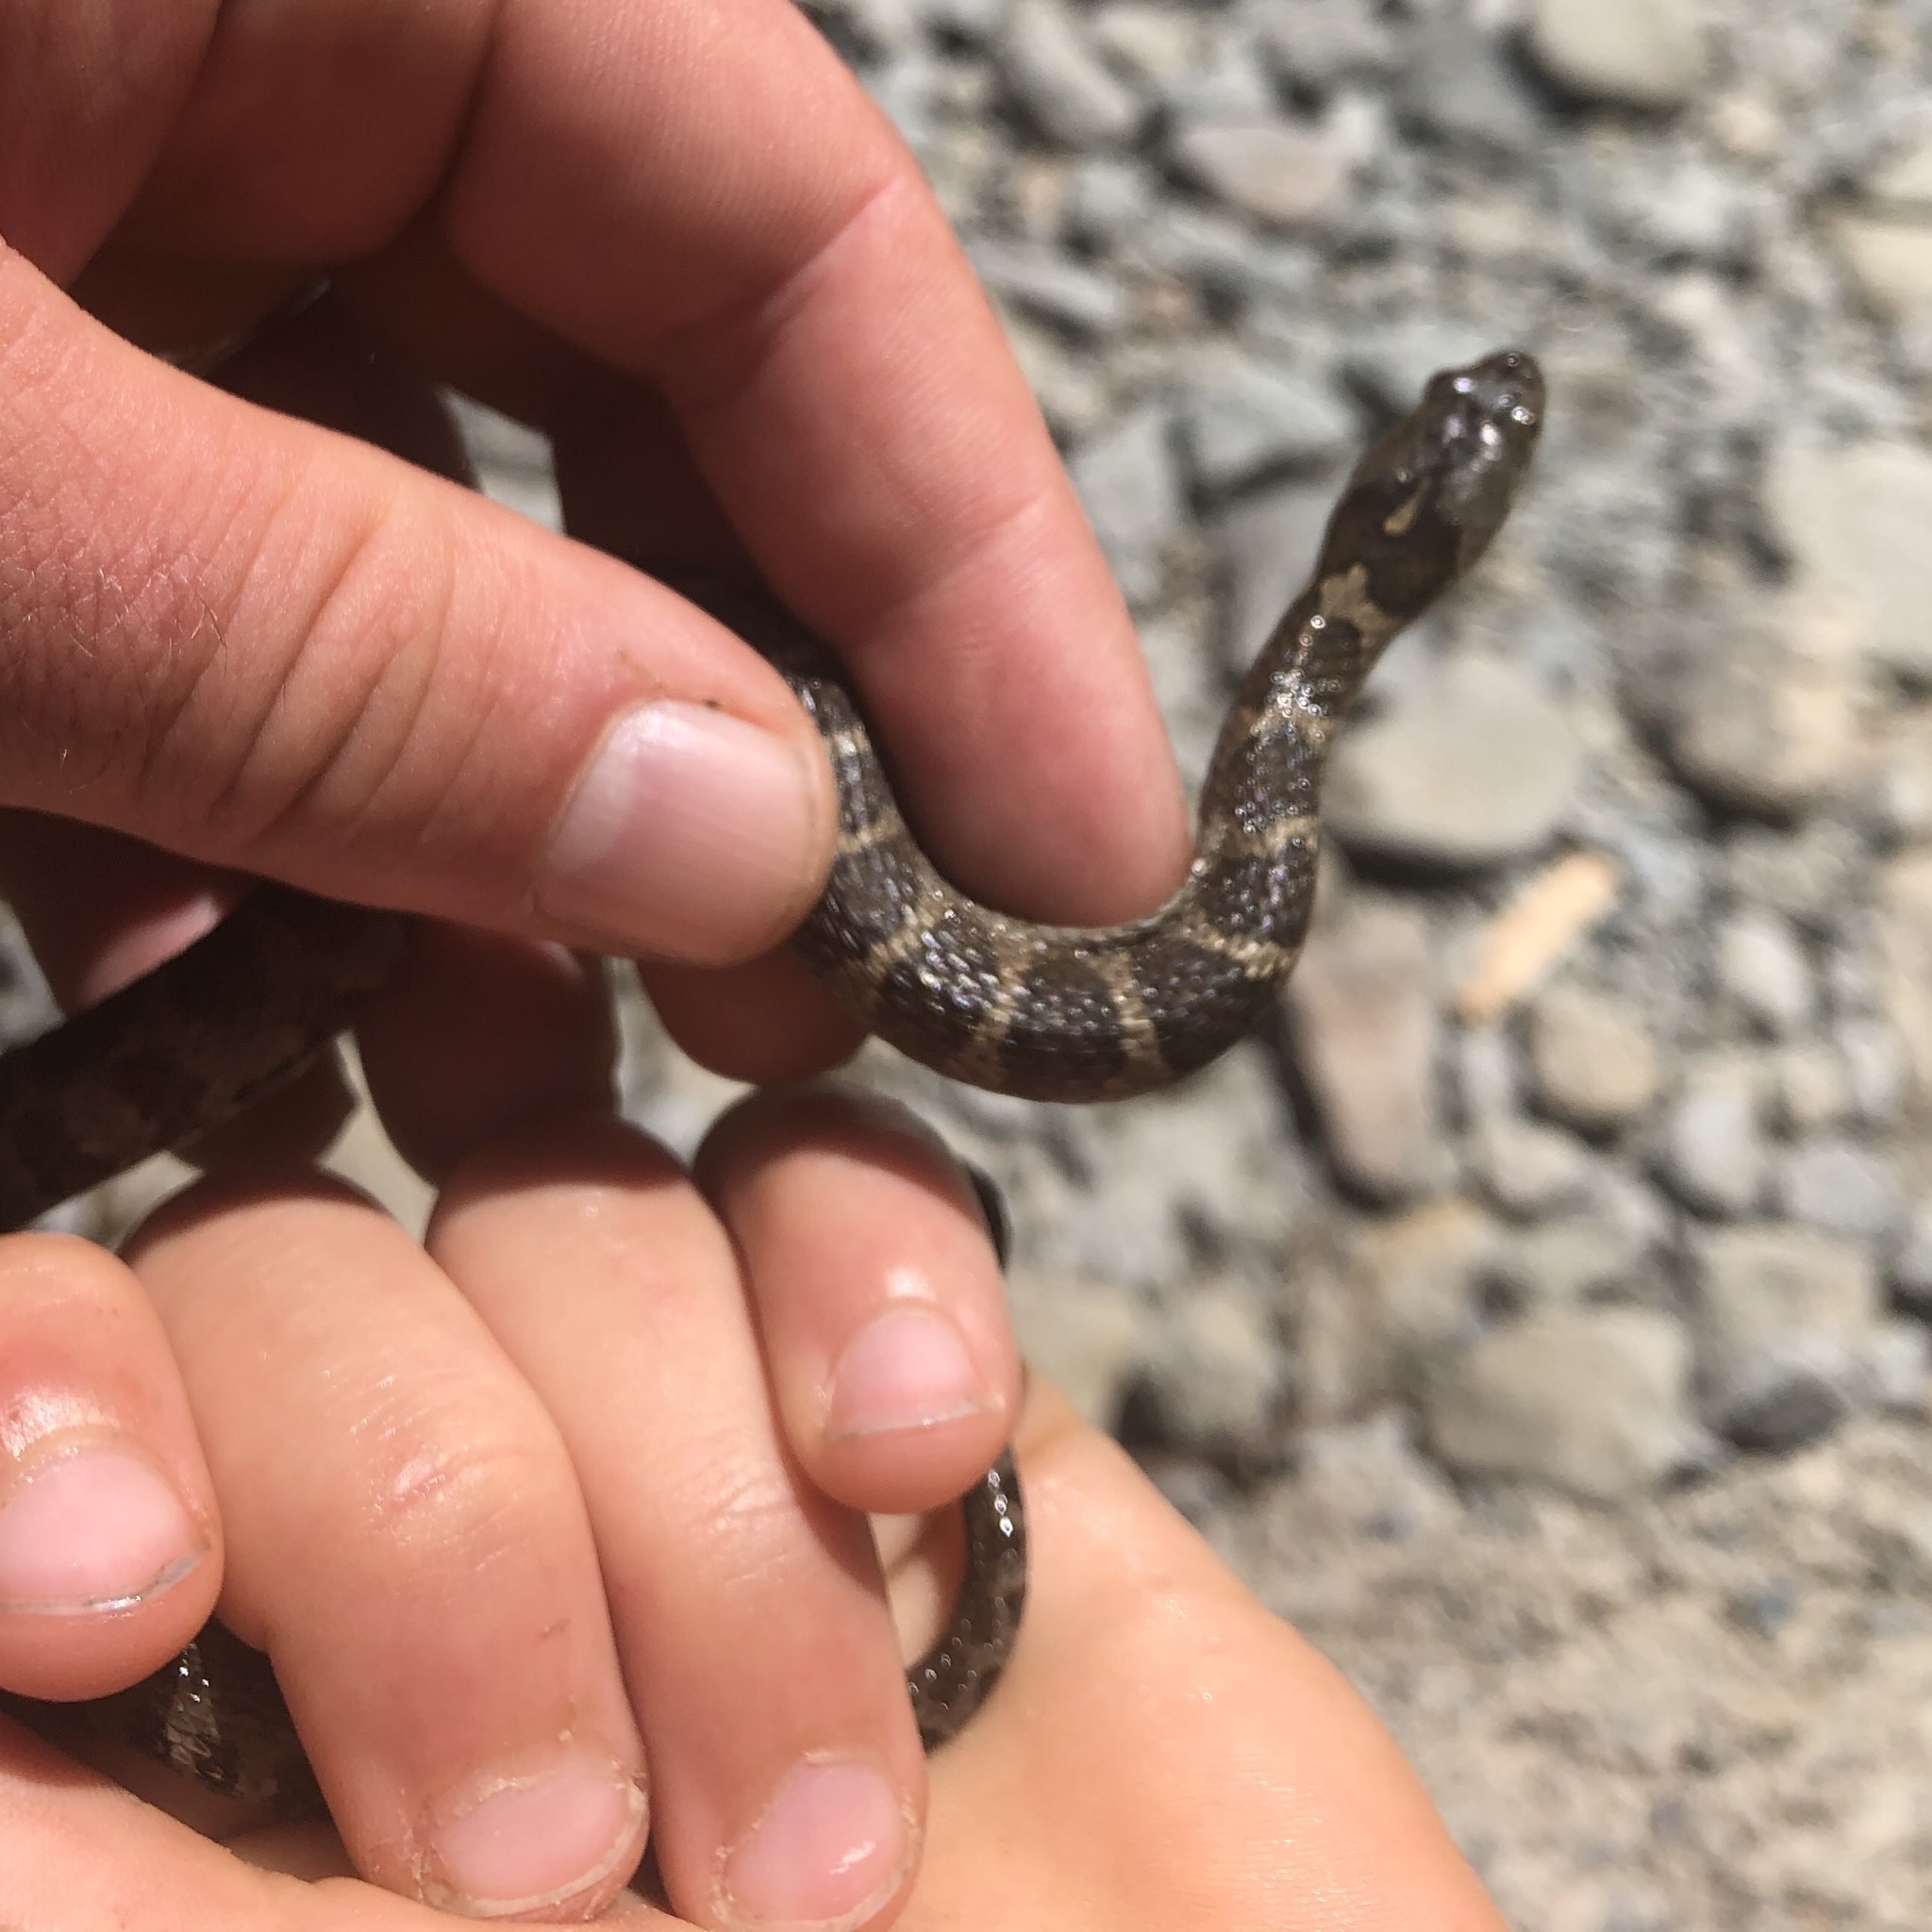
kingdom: Animalia
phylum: Chordata
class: Squamata
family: Colubridae
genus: Nerodia
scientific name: Nerodia sipedon
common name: Northern water snake
